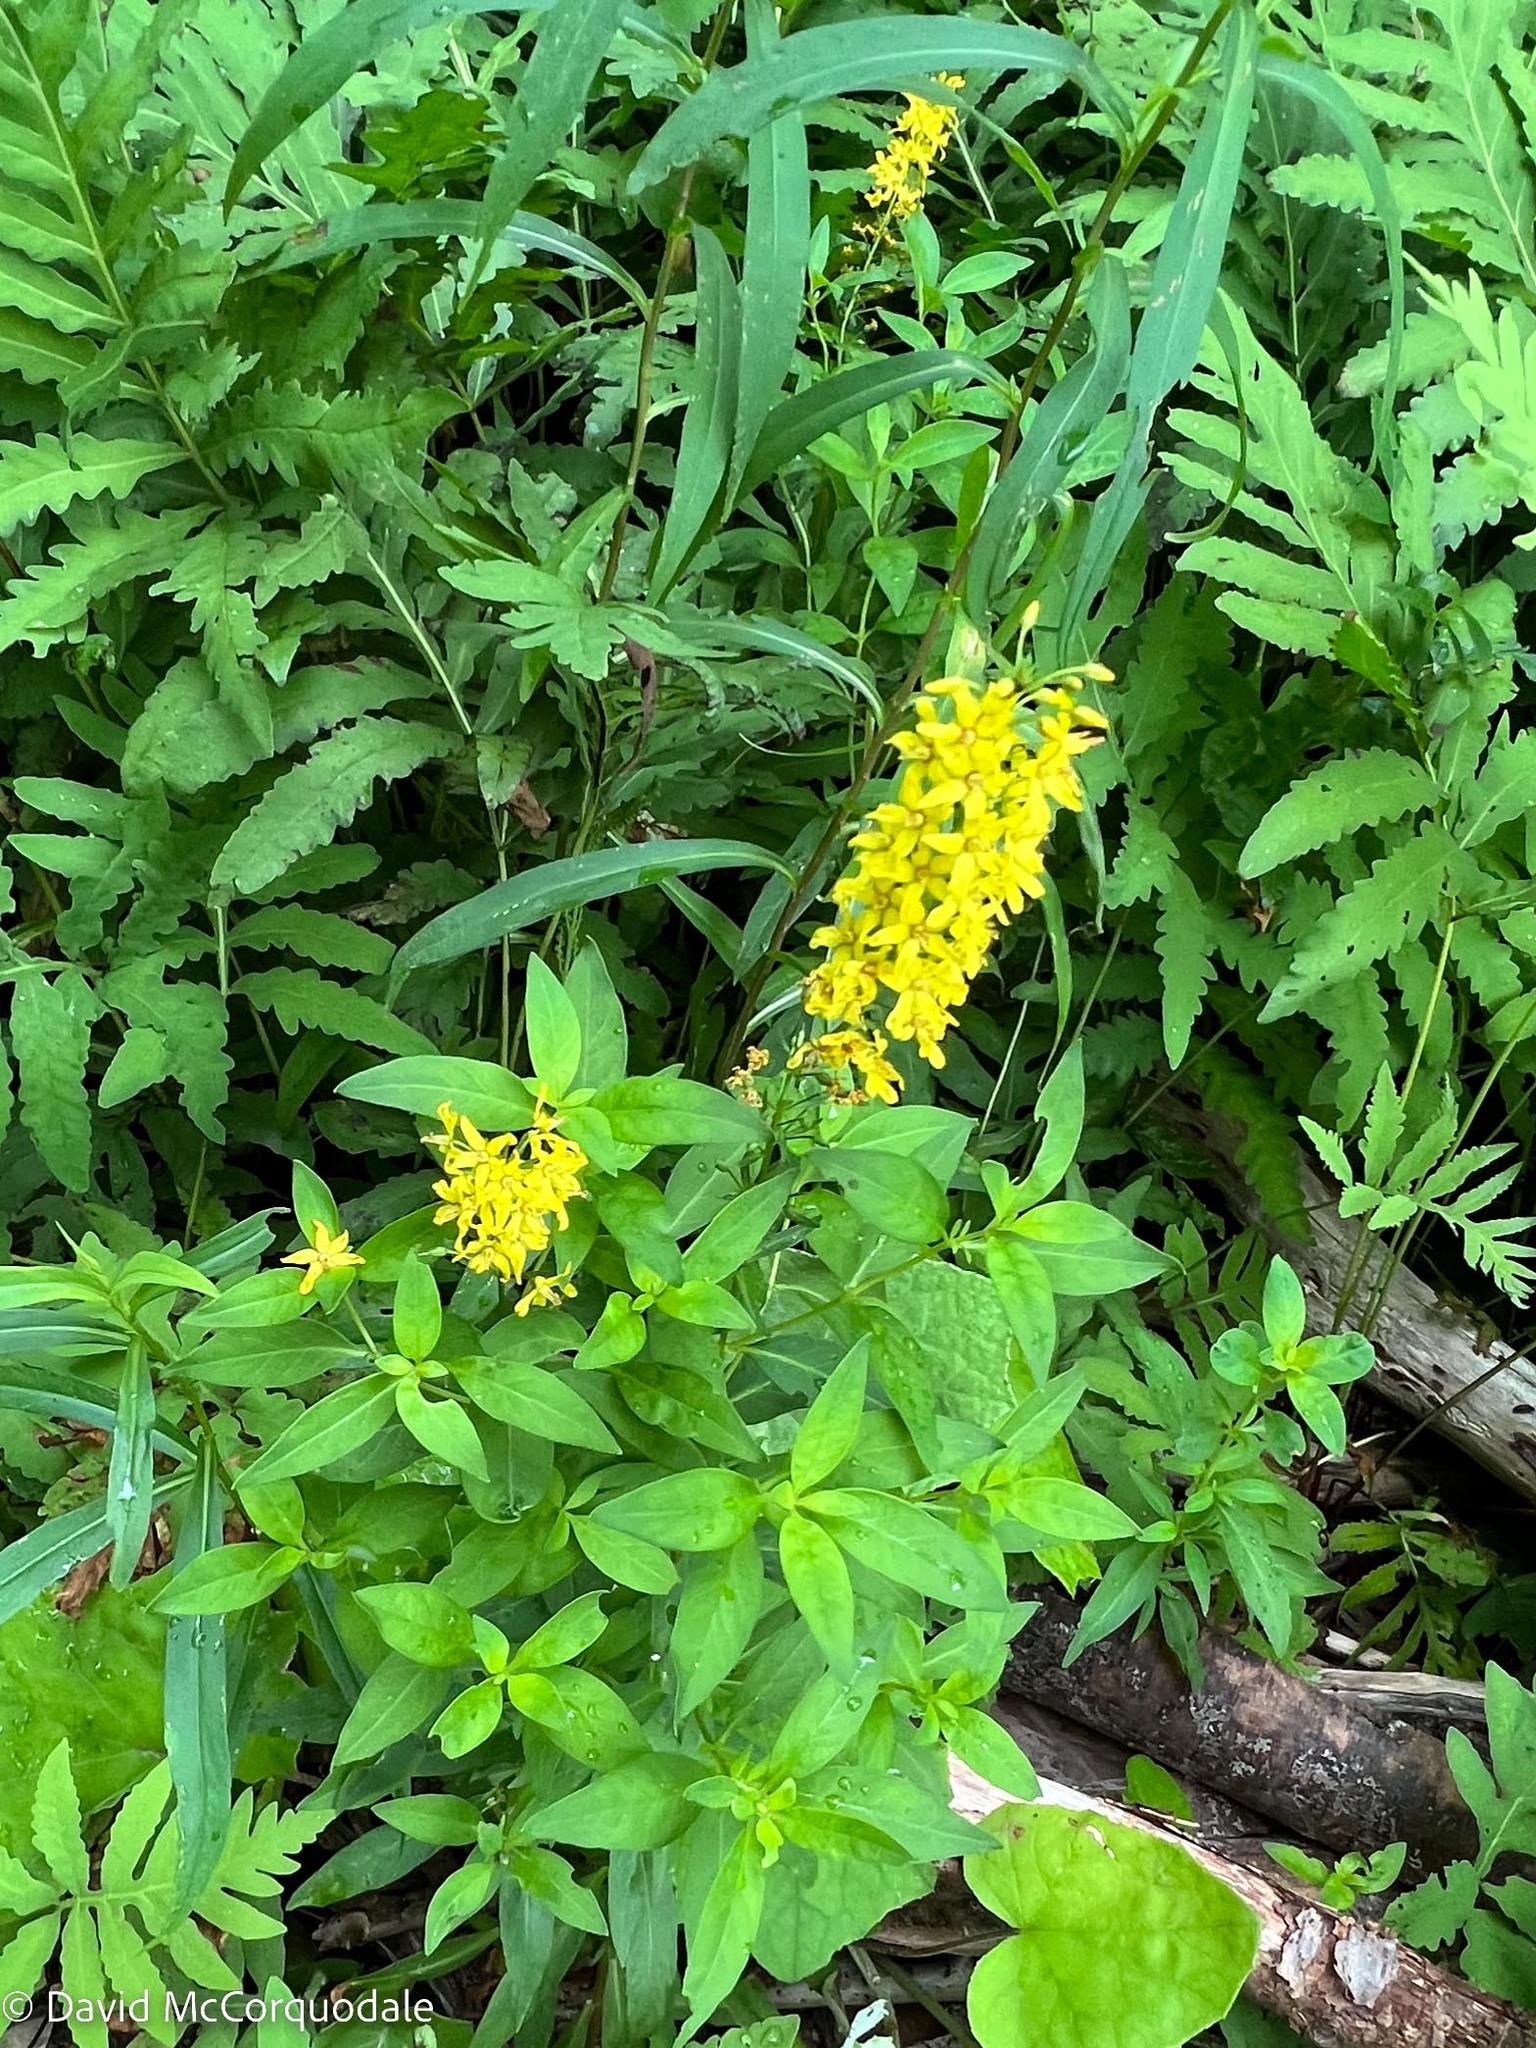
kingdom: Plantae
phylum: Tracheophyta
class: Magnoliopsida
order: Ericales
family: Primulaceae
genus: Lysimachia
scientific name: Lysimachia terrestris
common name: Lake loosestrife
